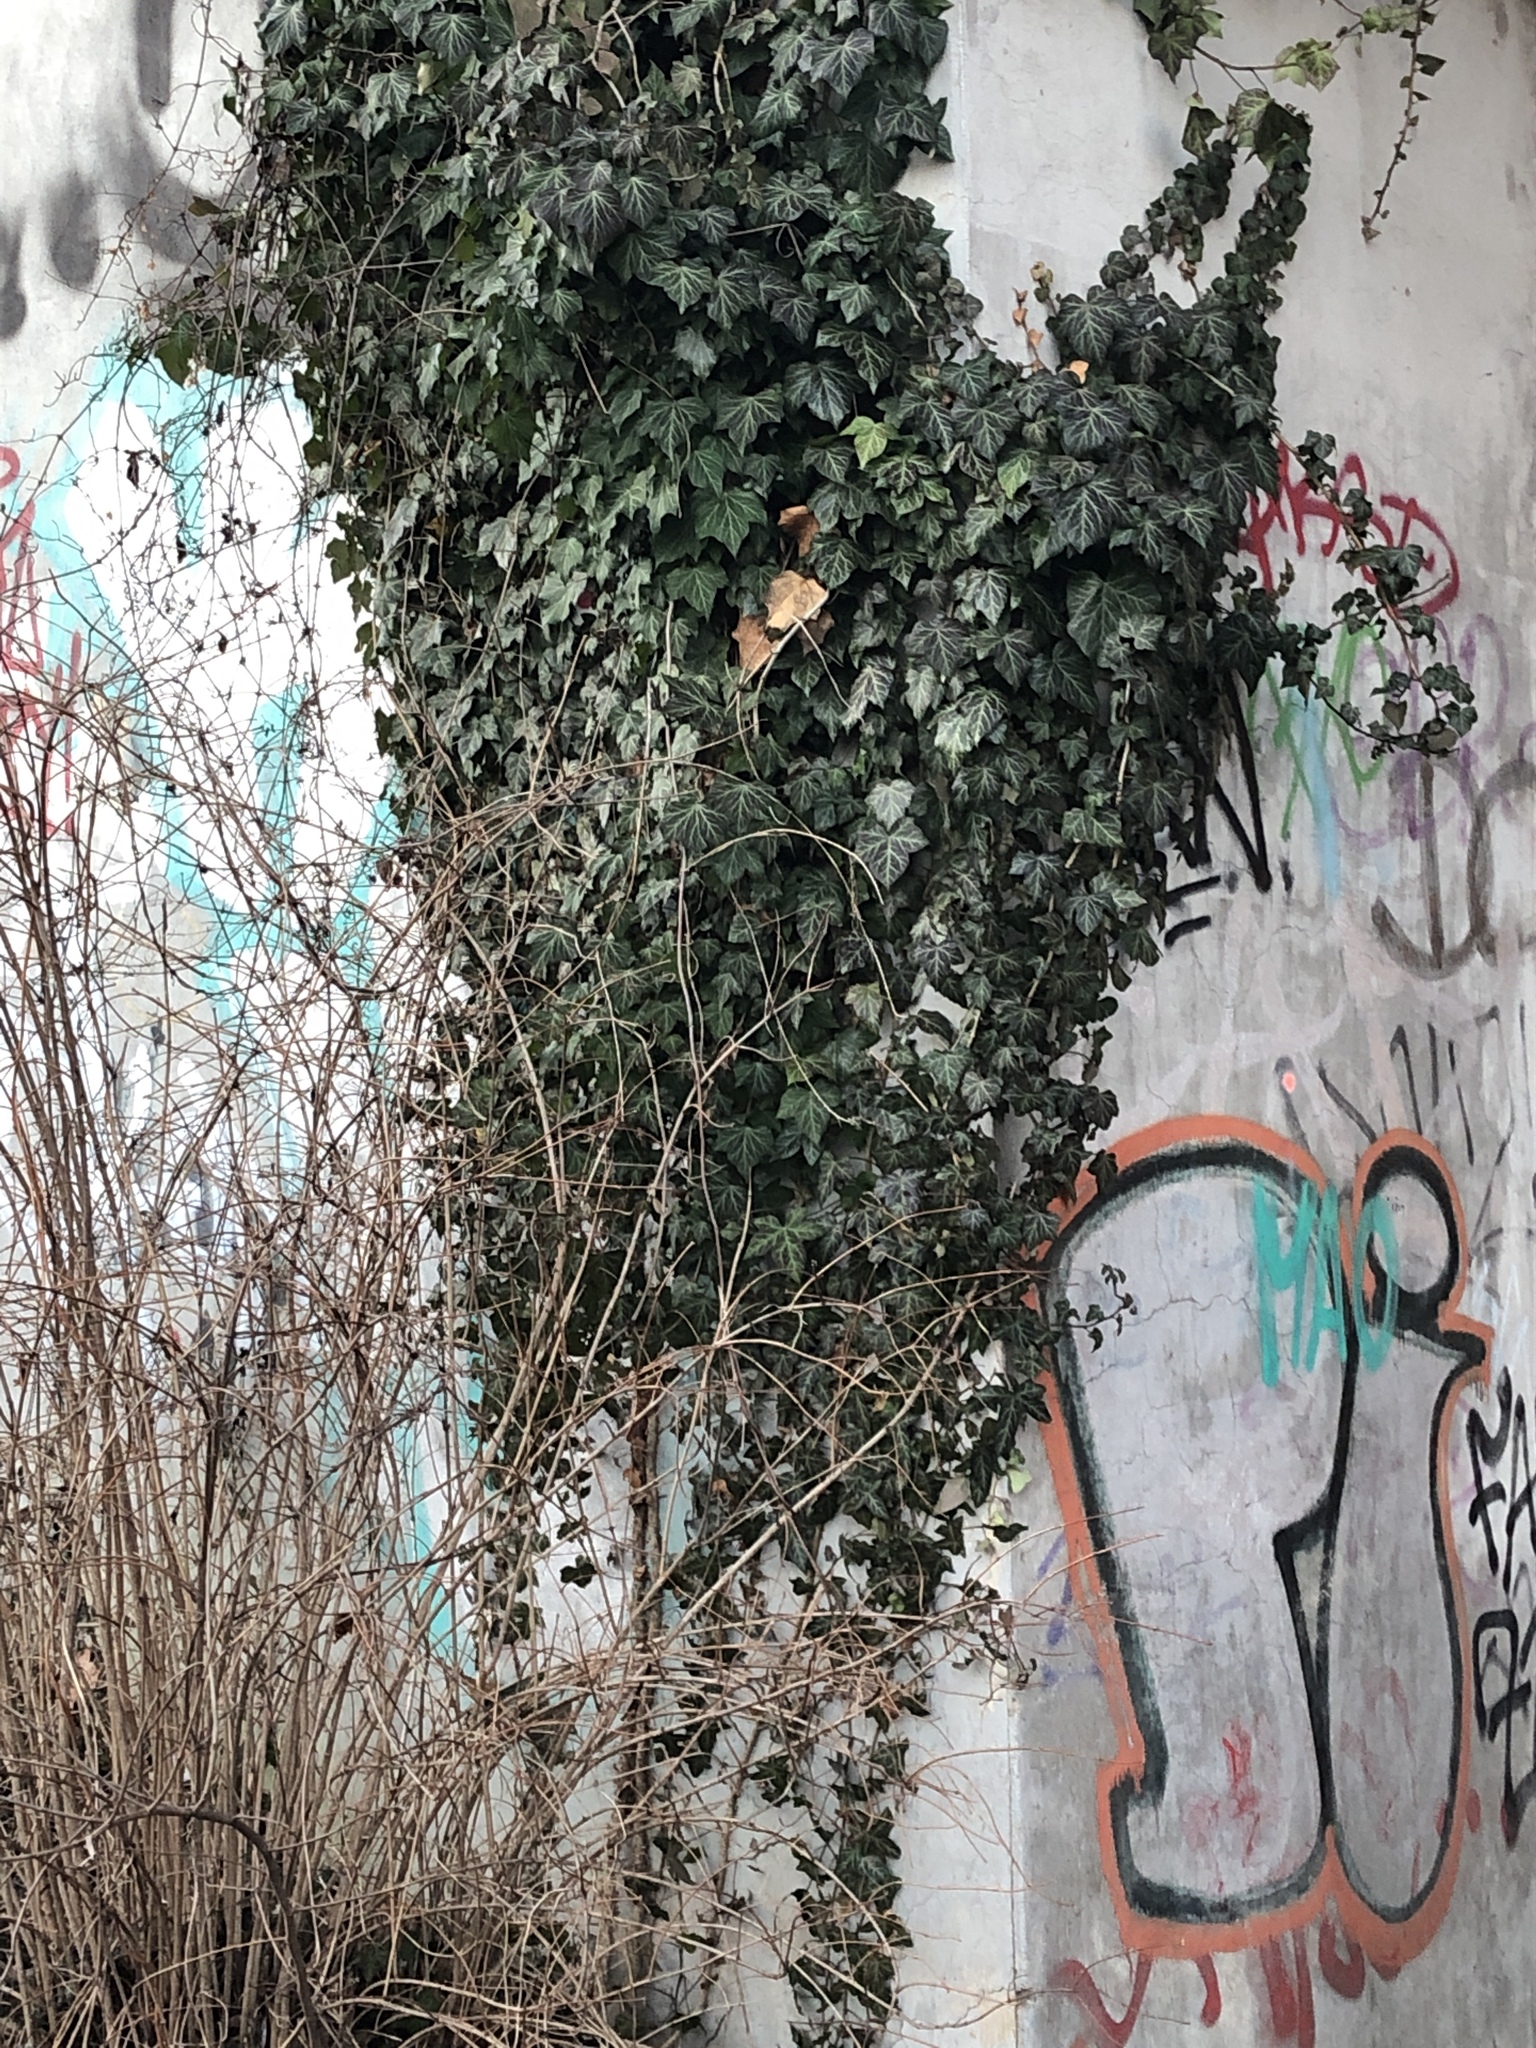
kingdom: Plantae
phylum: Tracheophyta
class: Magnoliopsida
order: Apiales
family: Araliaceae
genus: Hedera
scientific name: Hedera helix
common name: Ivy
